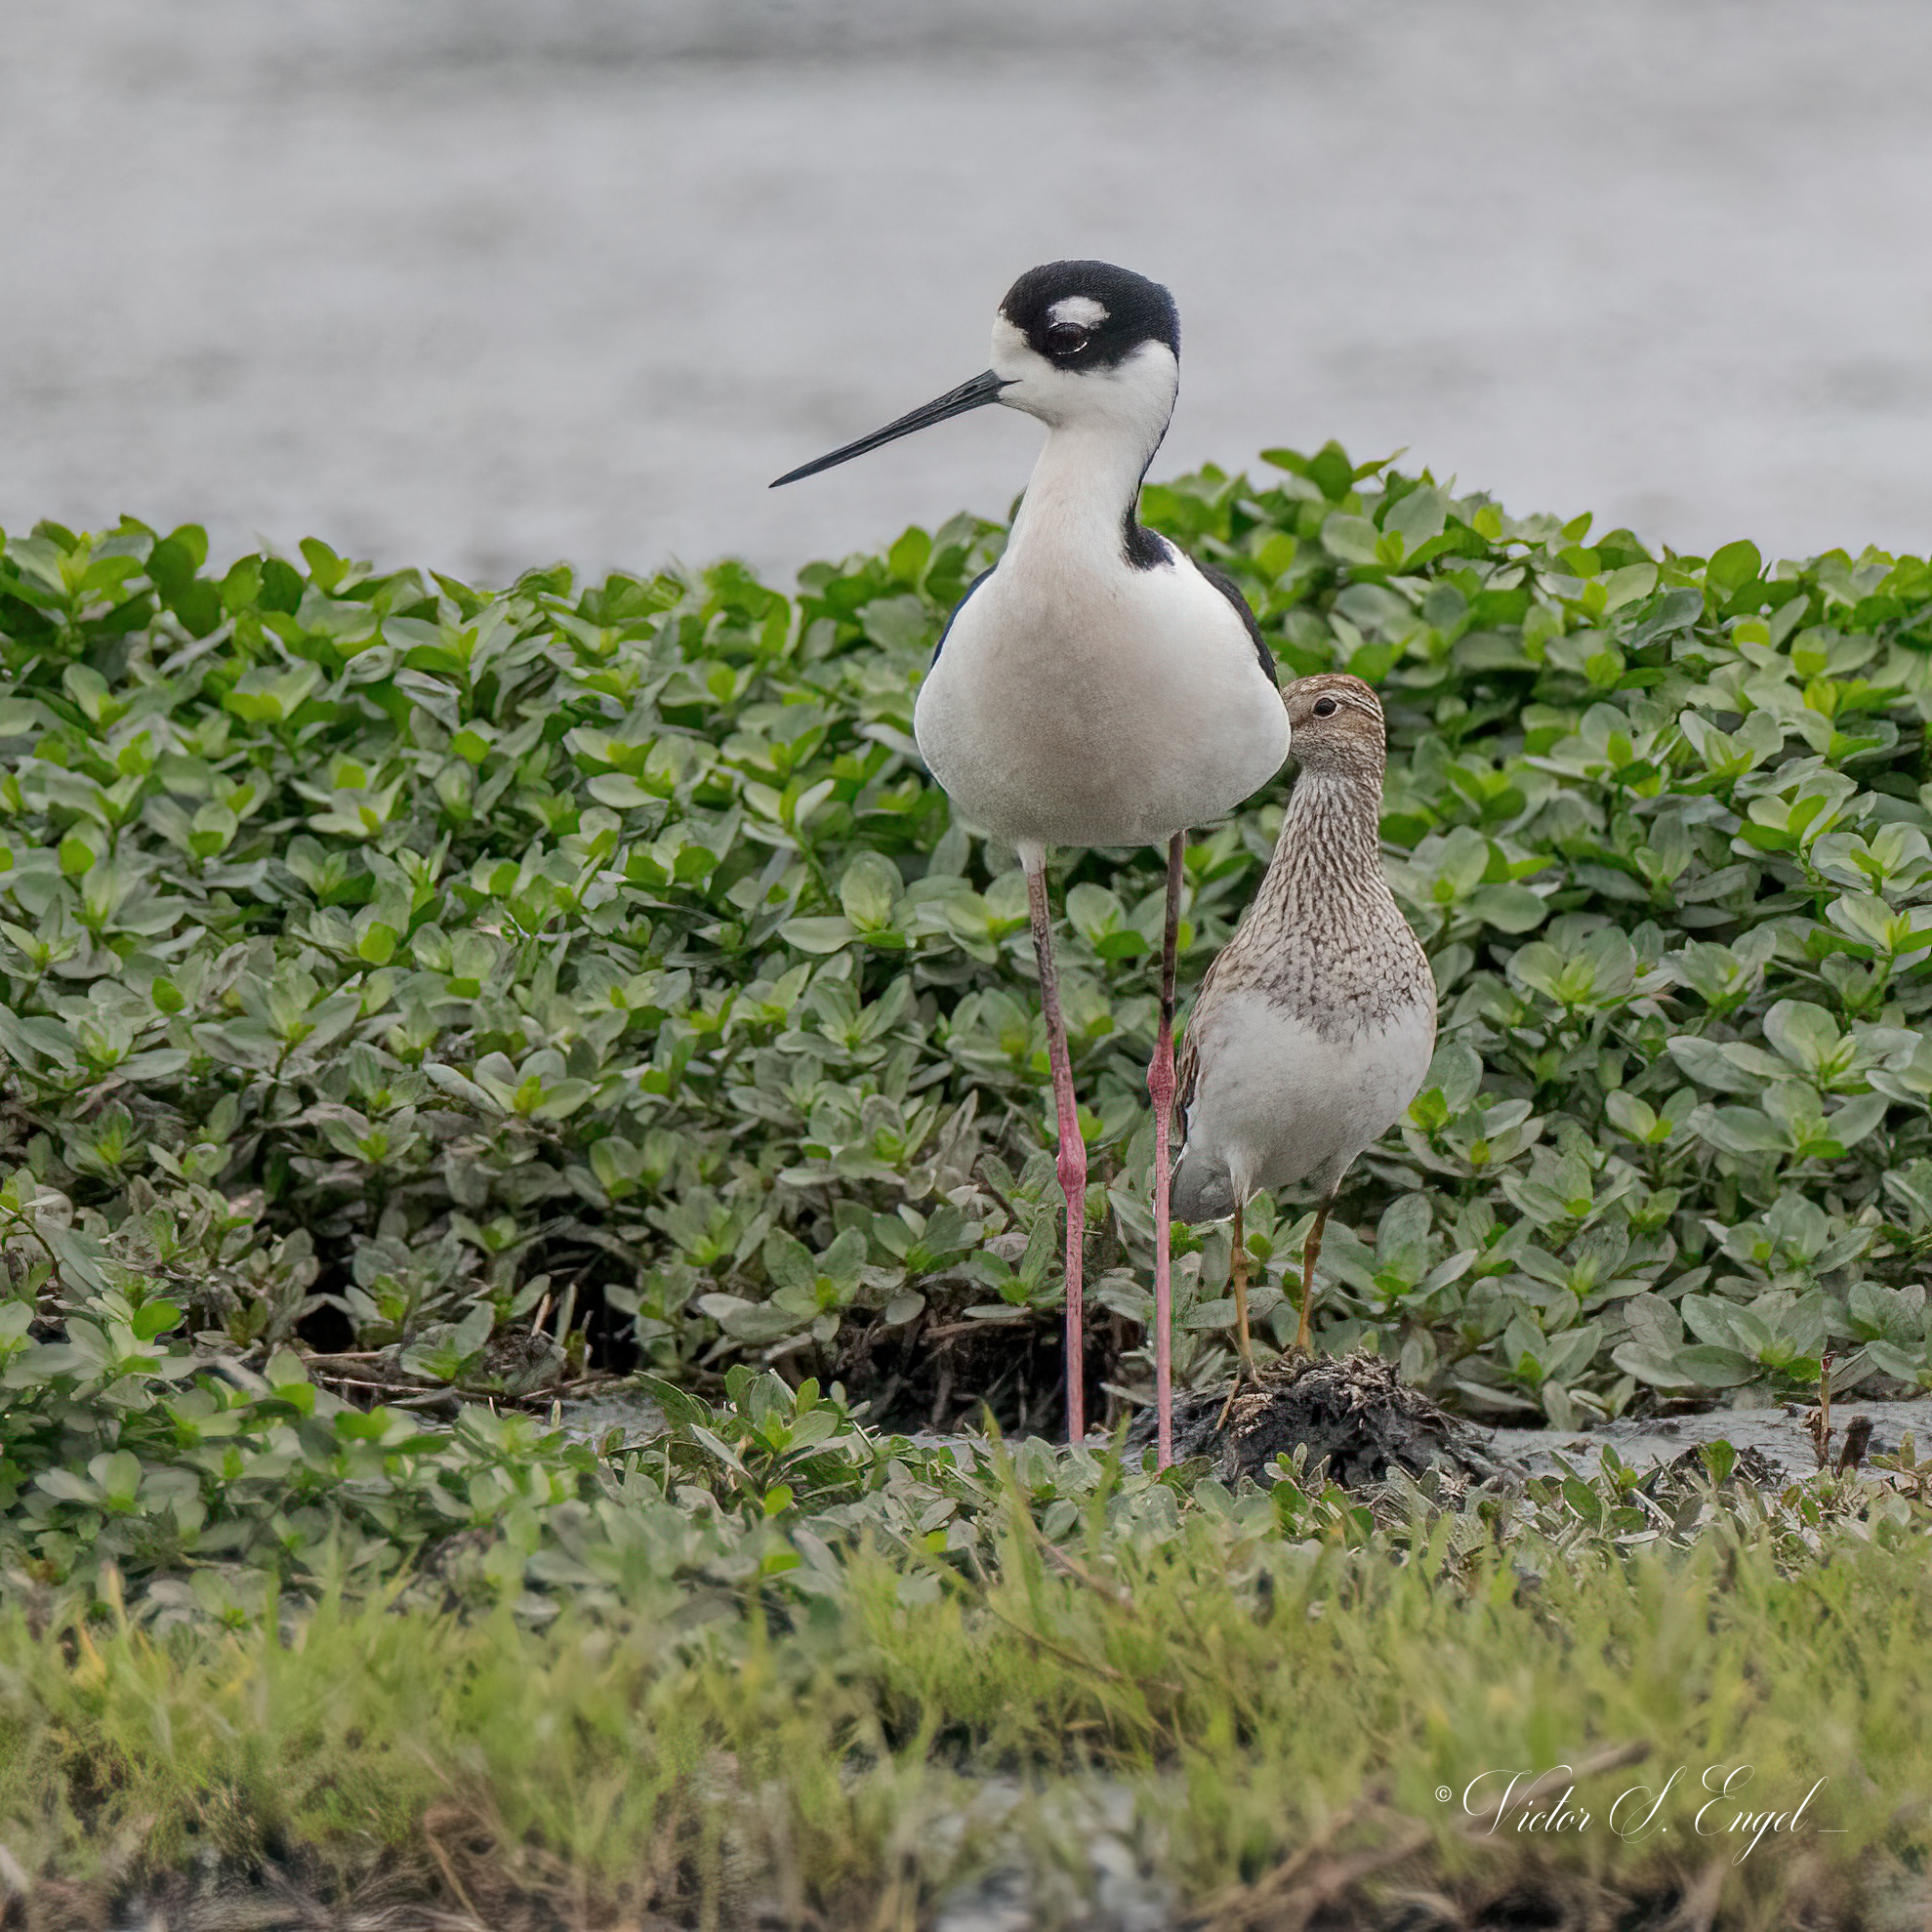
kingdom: Animalia
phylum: Chordata
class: Aves
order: Charadriiformes
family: Recurvirostridae
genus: Himantopus
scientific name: Himantopus mexicanus
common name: Black-necked stilt
